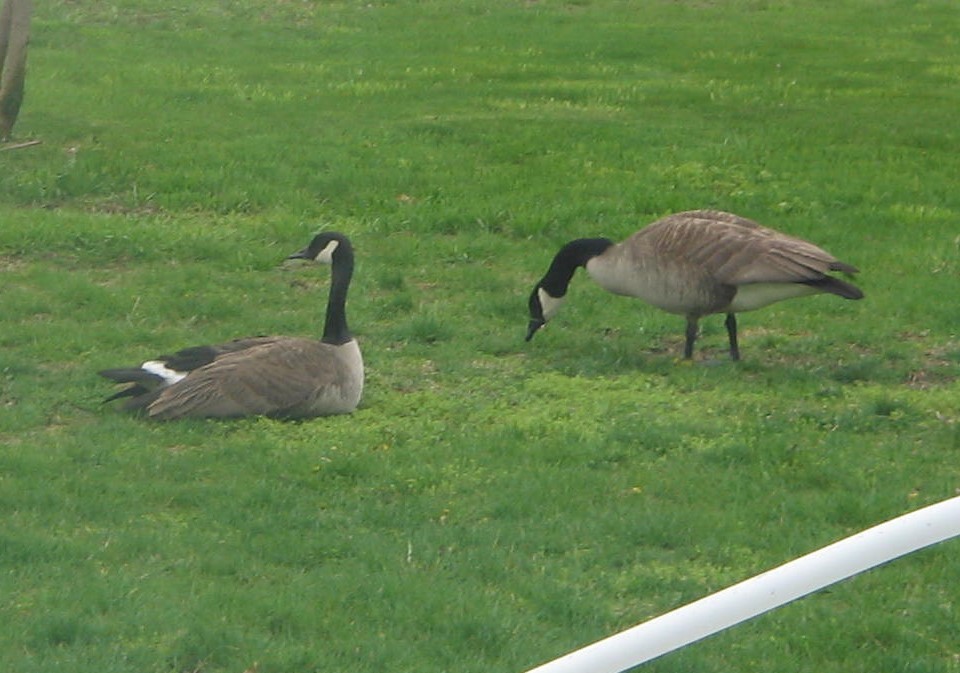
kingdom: Animalia
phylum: Chordata
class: Aves
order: Anseriformes
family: Anatidae
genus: Branta
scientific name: Branta canadensis
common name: Canada goose
